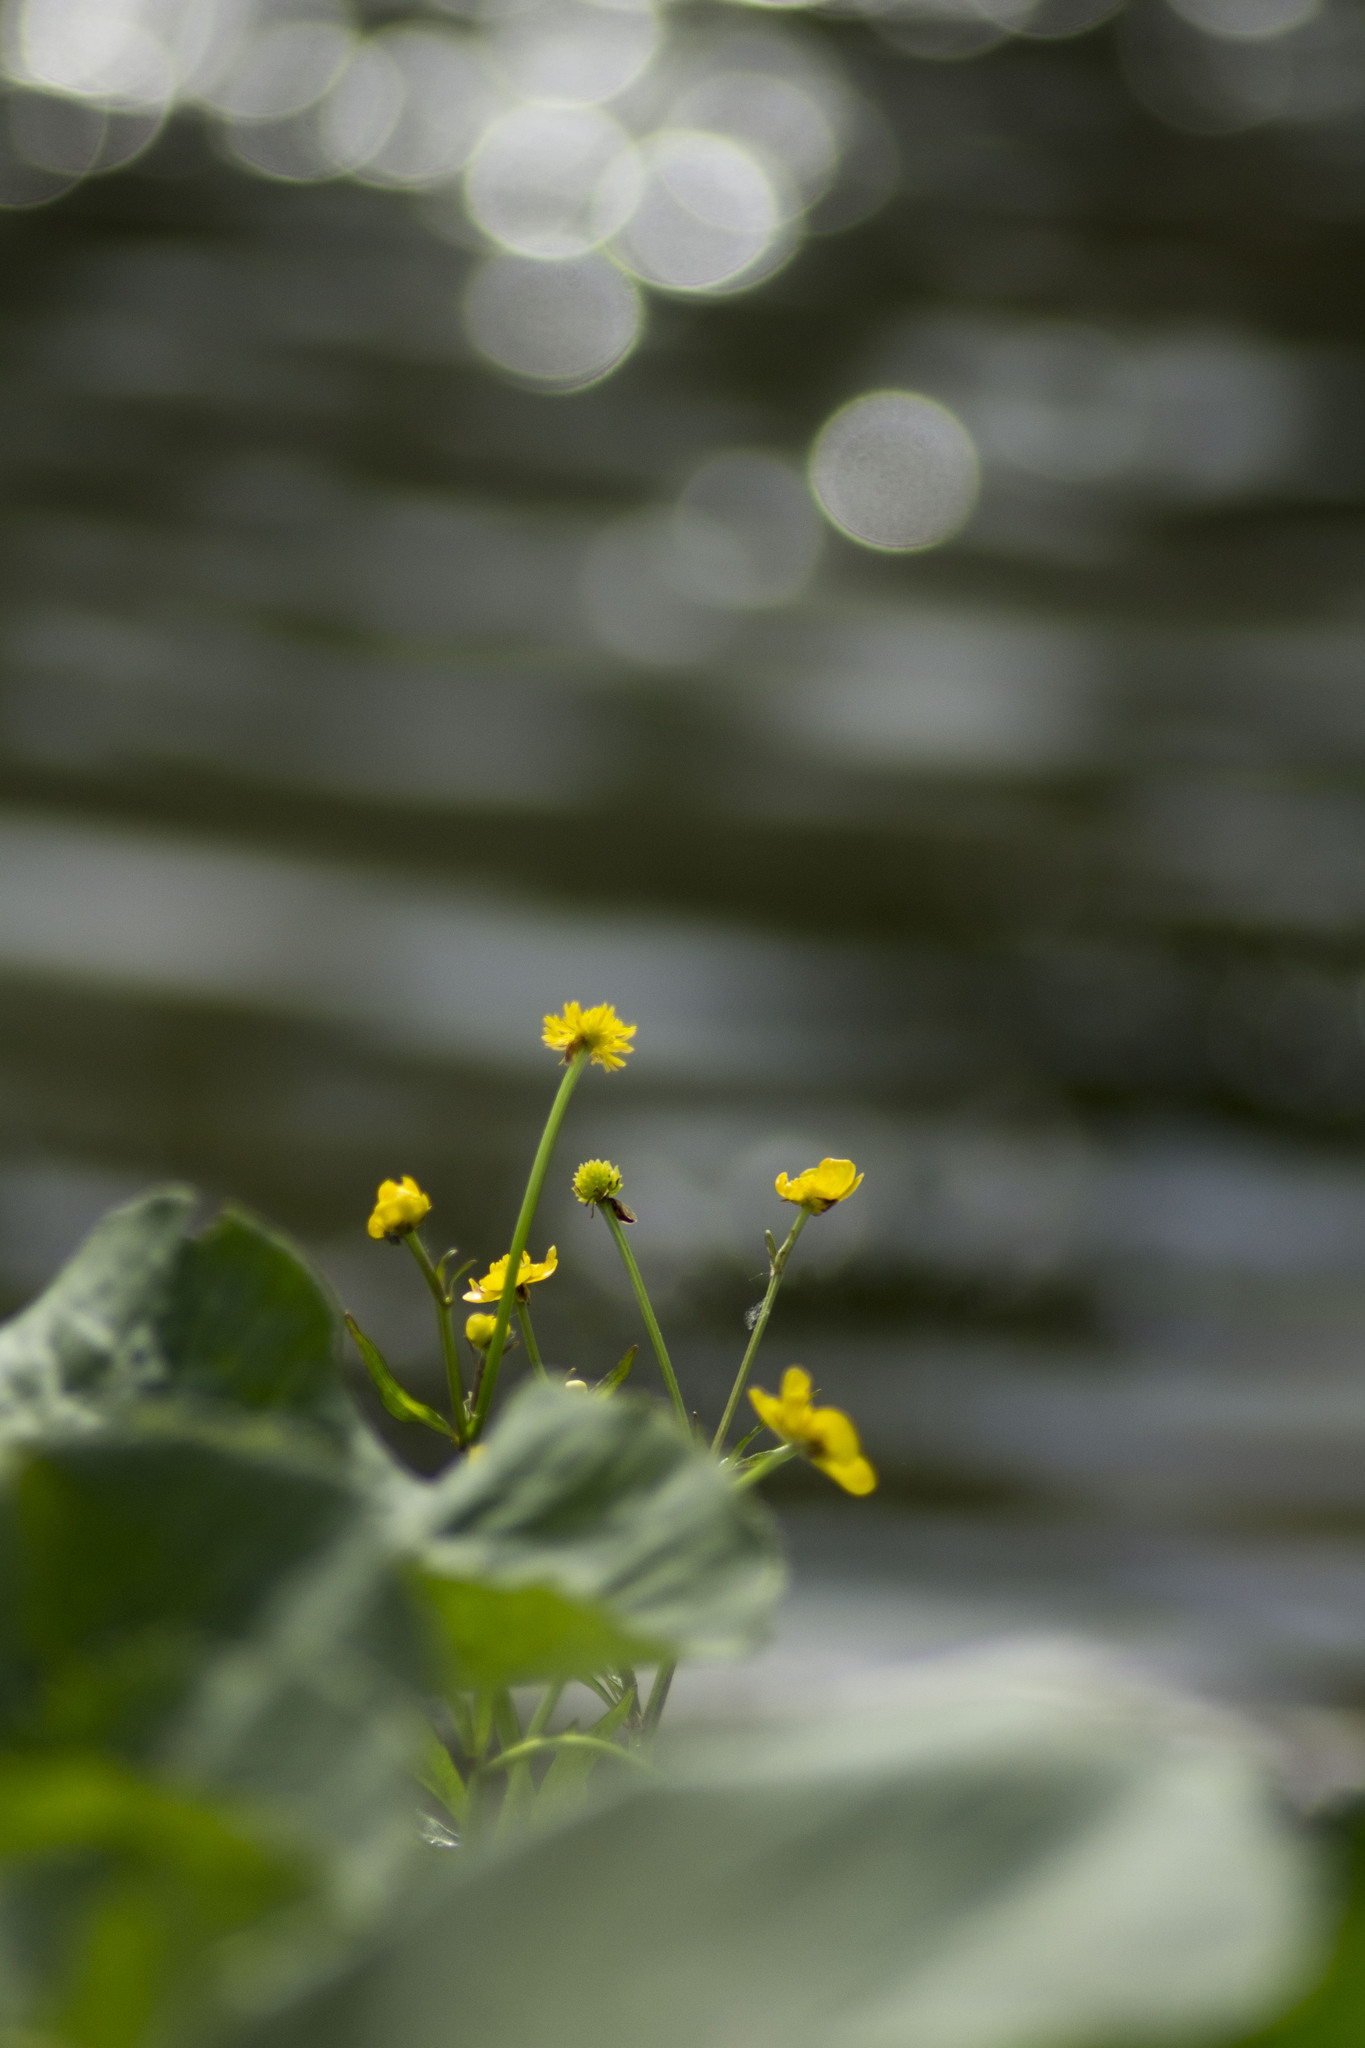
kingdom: Plantae
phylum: Tracheophyta
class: Magnoliopsida
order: Ranunculales
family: Ranunculaceae
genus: Caltha
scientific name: Caltha palustris
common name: Marsh marigold
